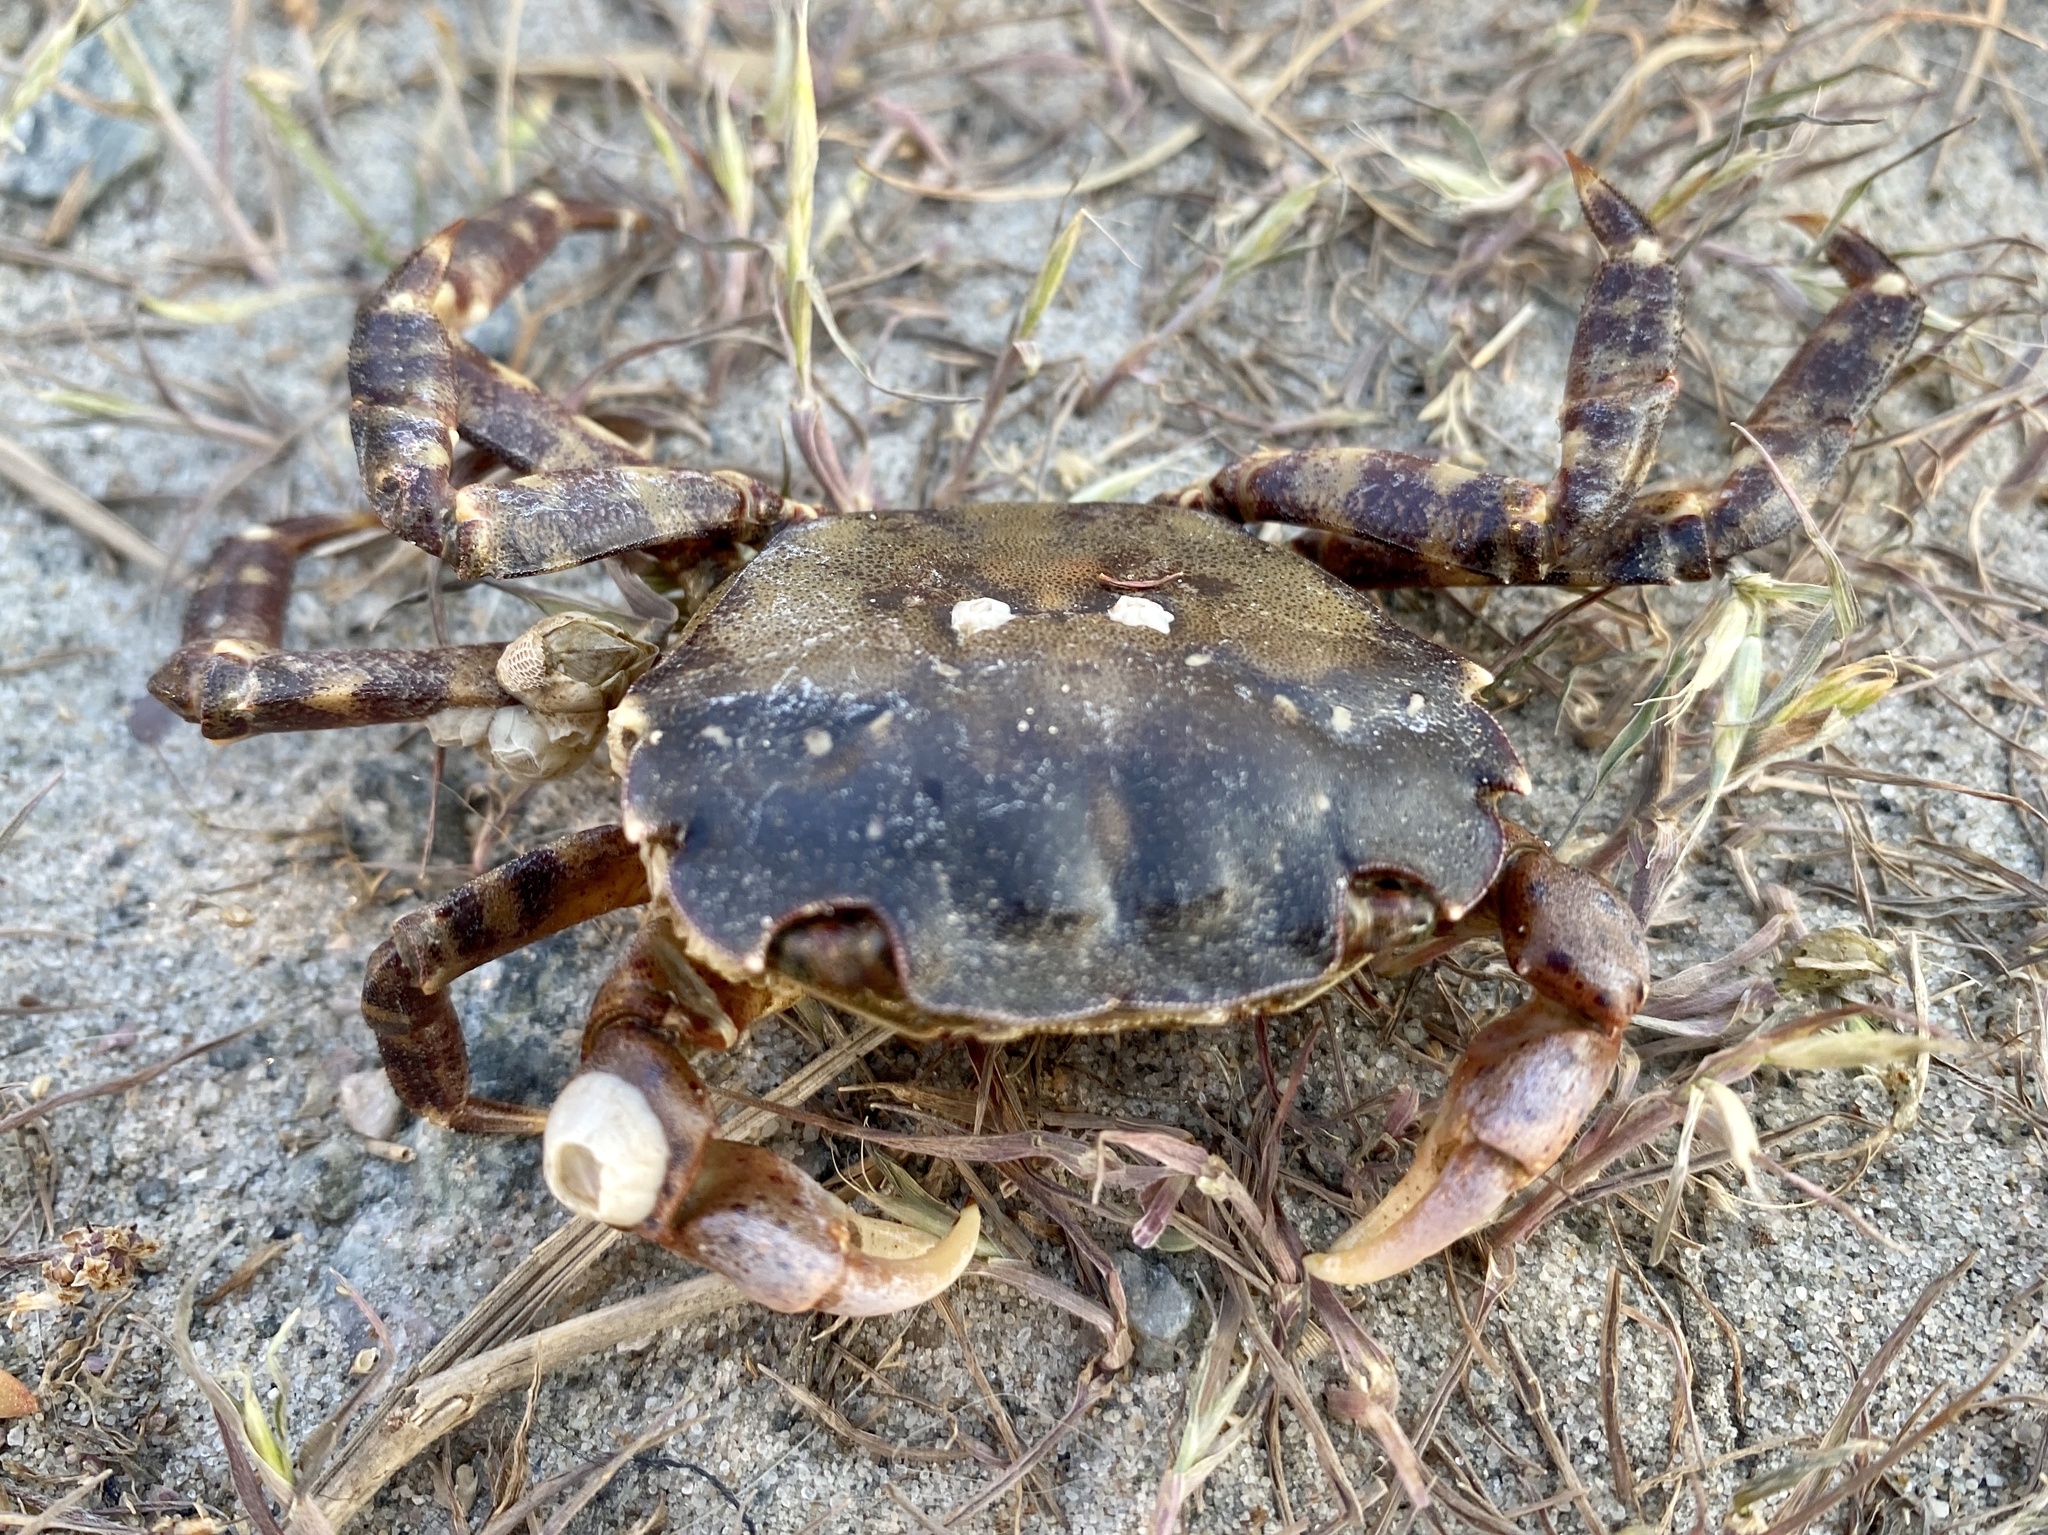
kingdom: Animalia
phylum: Arthropoda
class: Malacostraca
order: Decapoda
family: Varunidae
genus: Hemigrapsus
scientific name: Hemigrapsus sanguineus
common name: Asian shore crab
